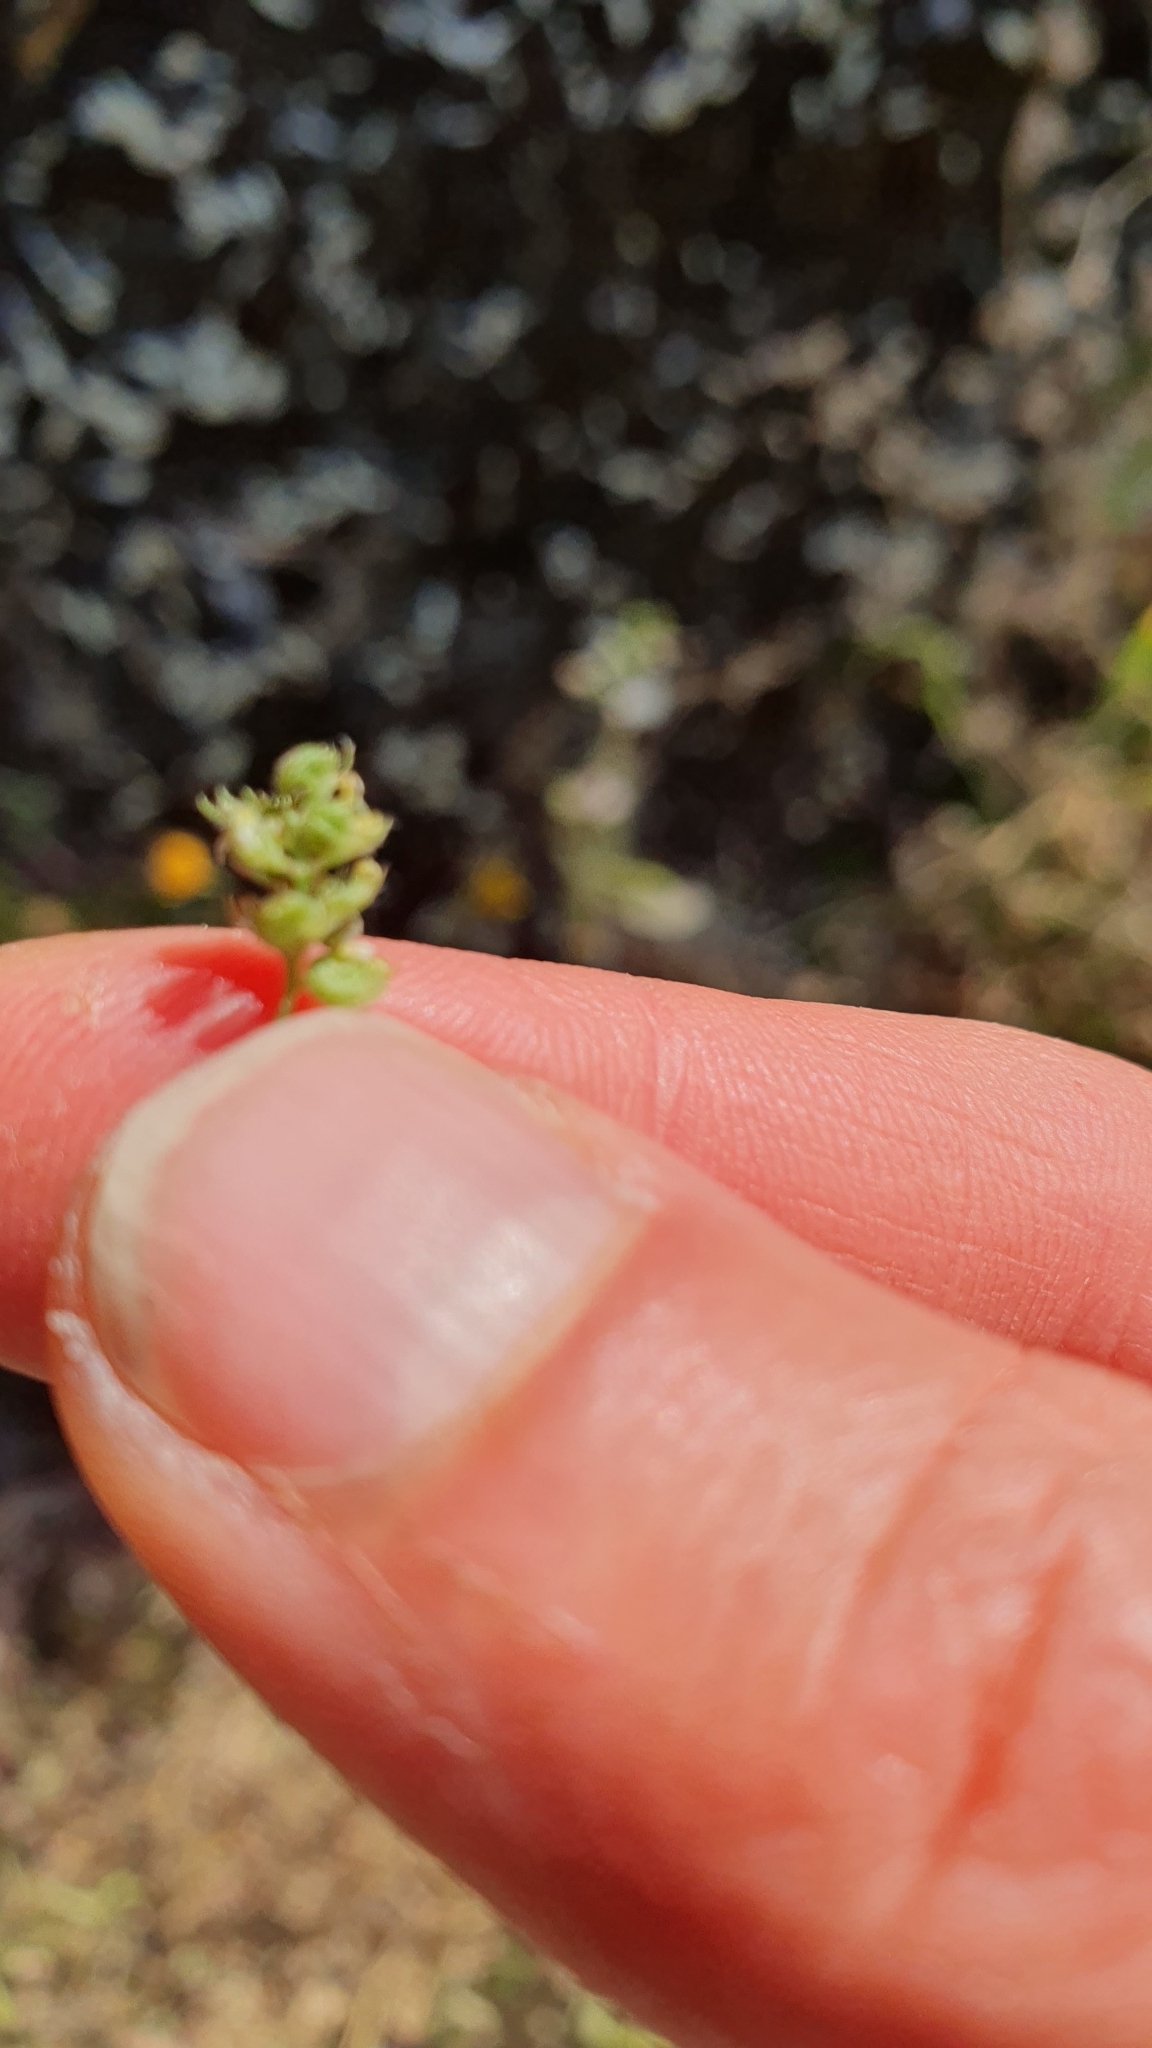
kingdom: Plantae
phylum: Tracheophyta
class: Magnoliopsida
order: Fabales
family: Fabaceae
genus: Medicago
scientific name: Medicago lupulina
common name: Black medick
